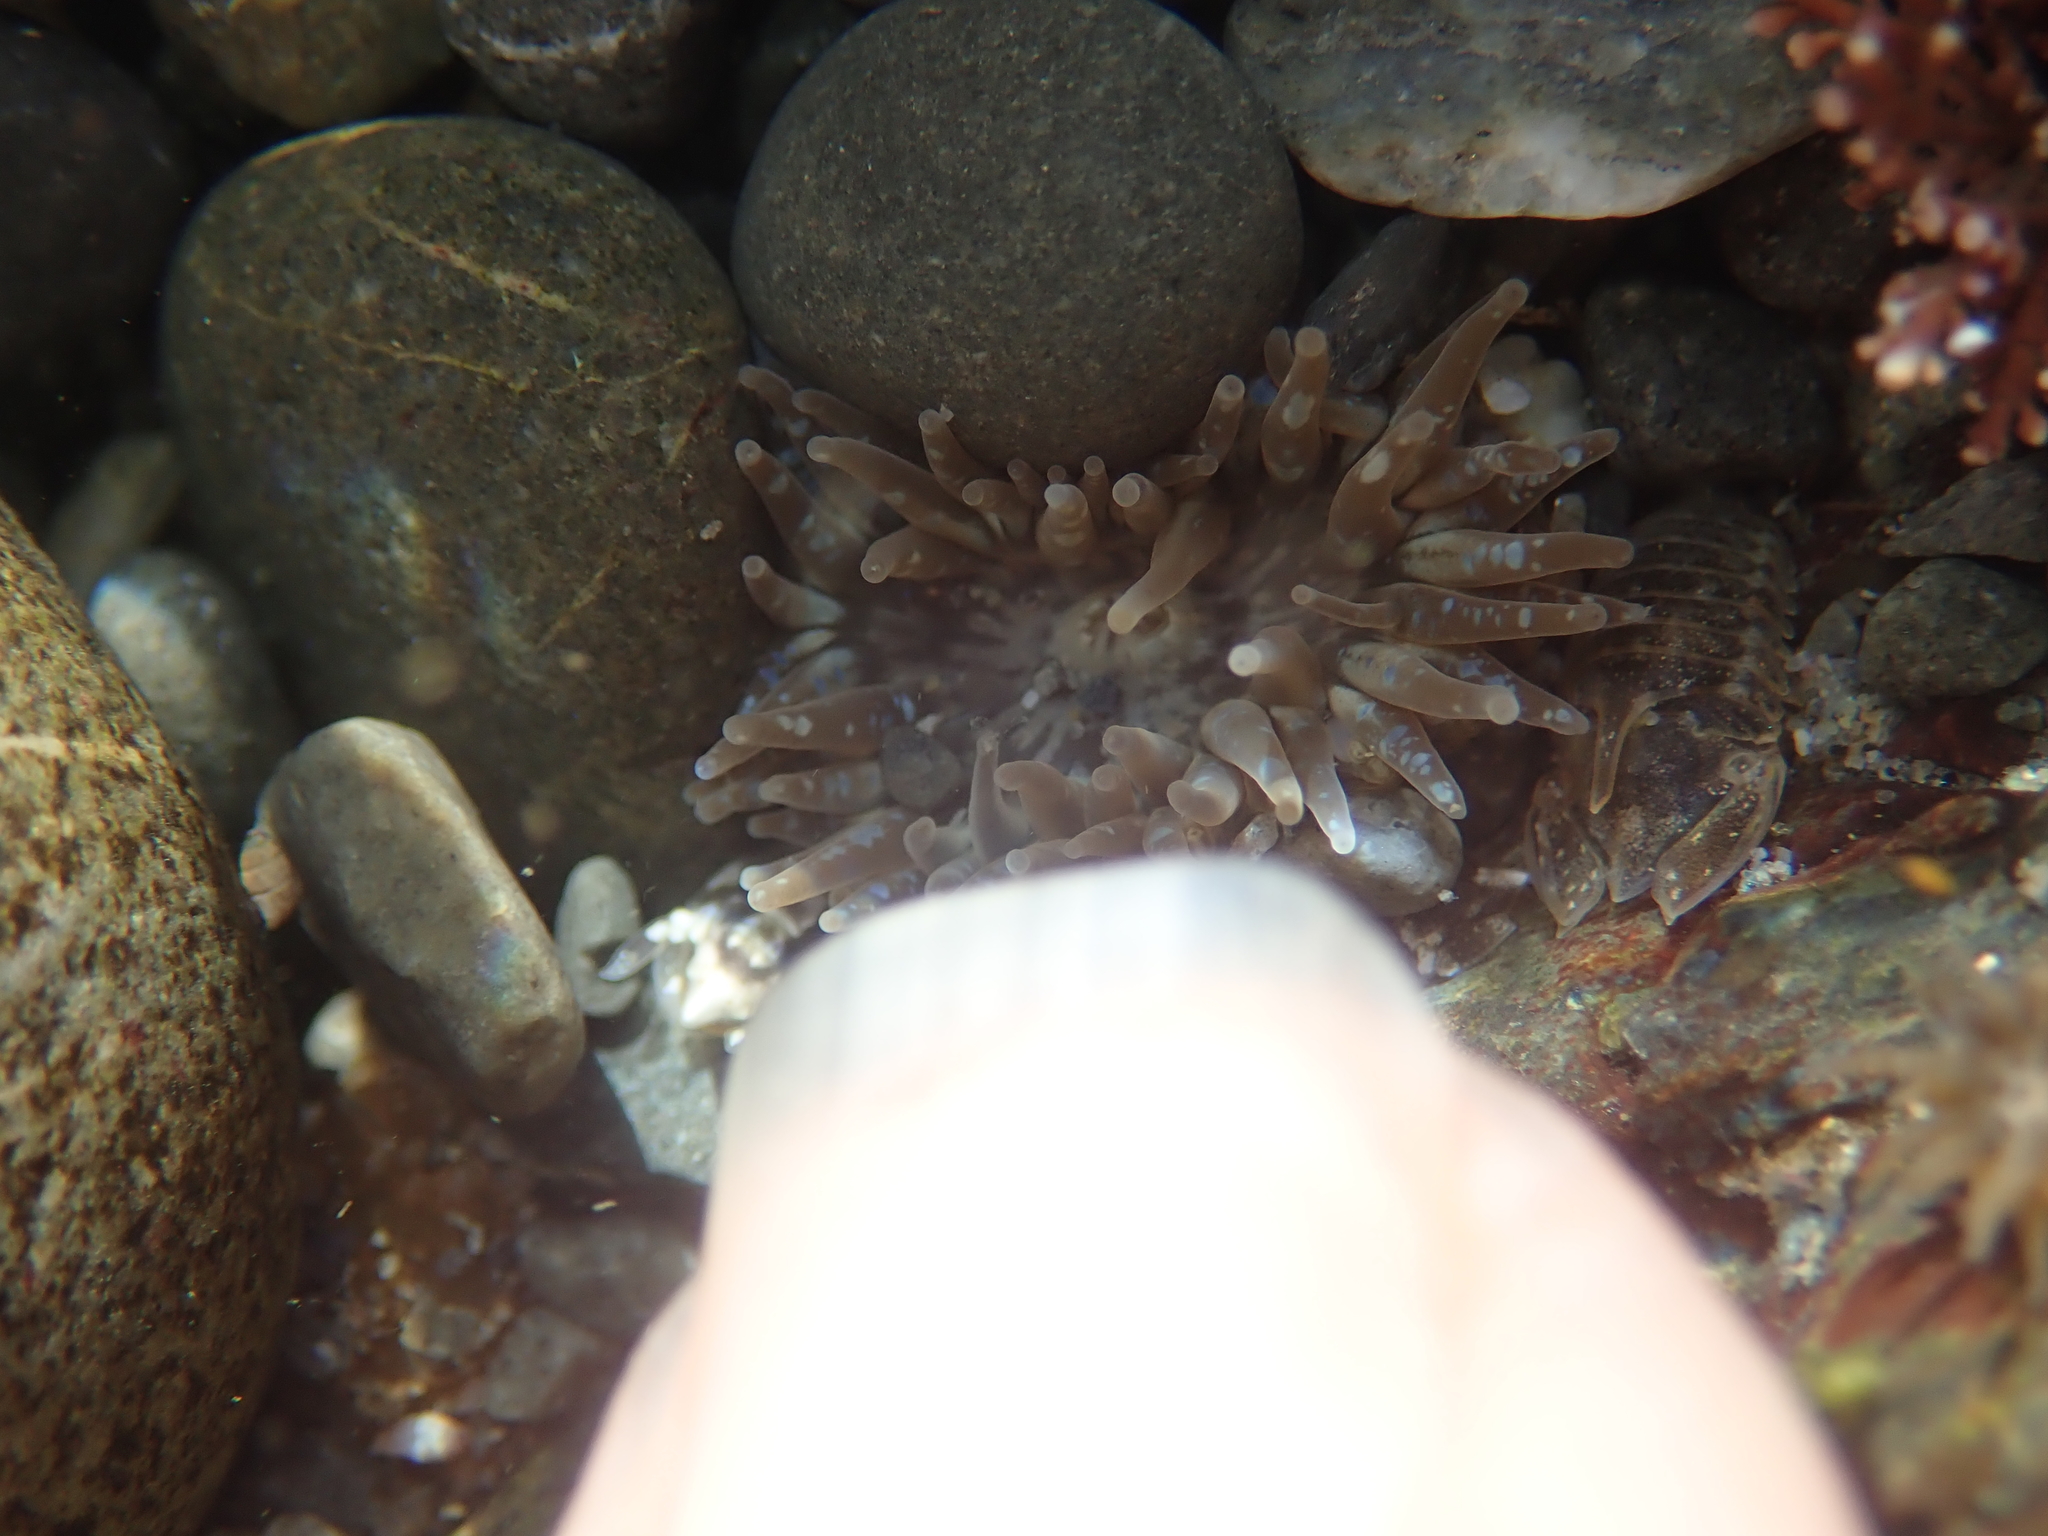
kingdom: Animalia
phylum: Cnidaria
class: Anthozoa
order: Actiniaria
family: Actiniidae
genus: Anthopleura
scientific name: Anthopleura hermaphroditica
